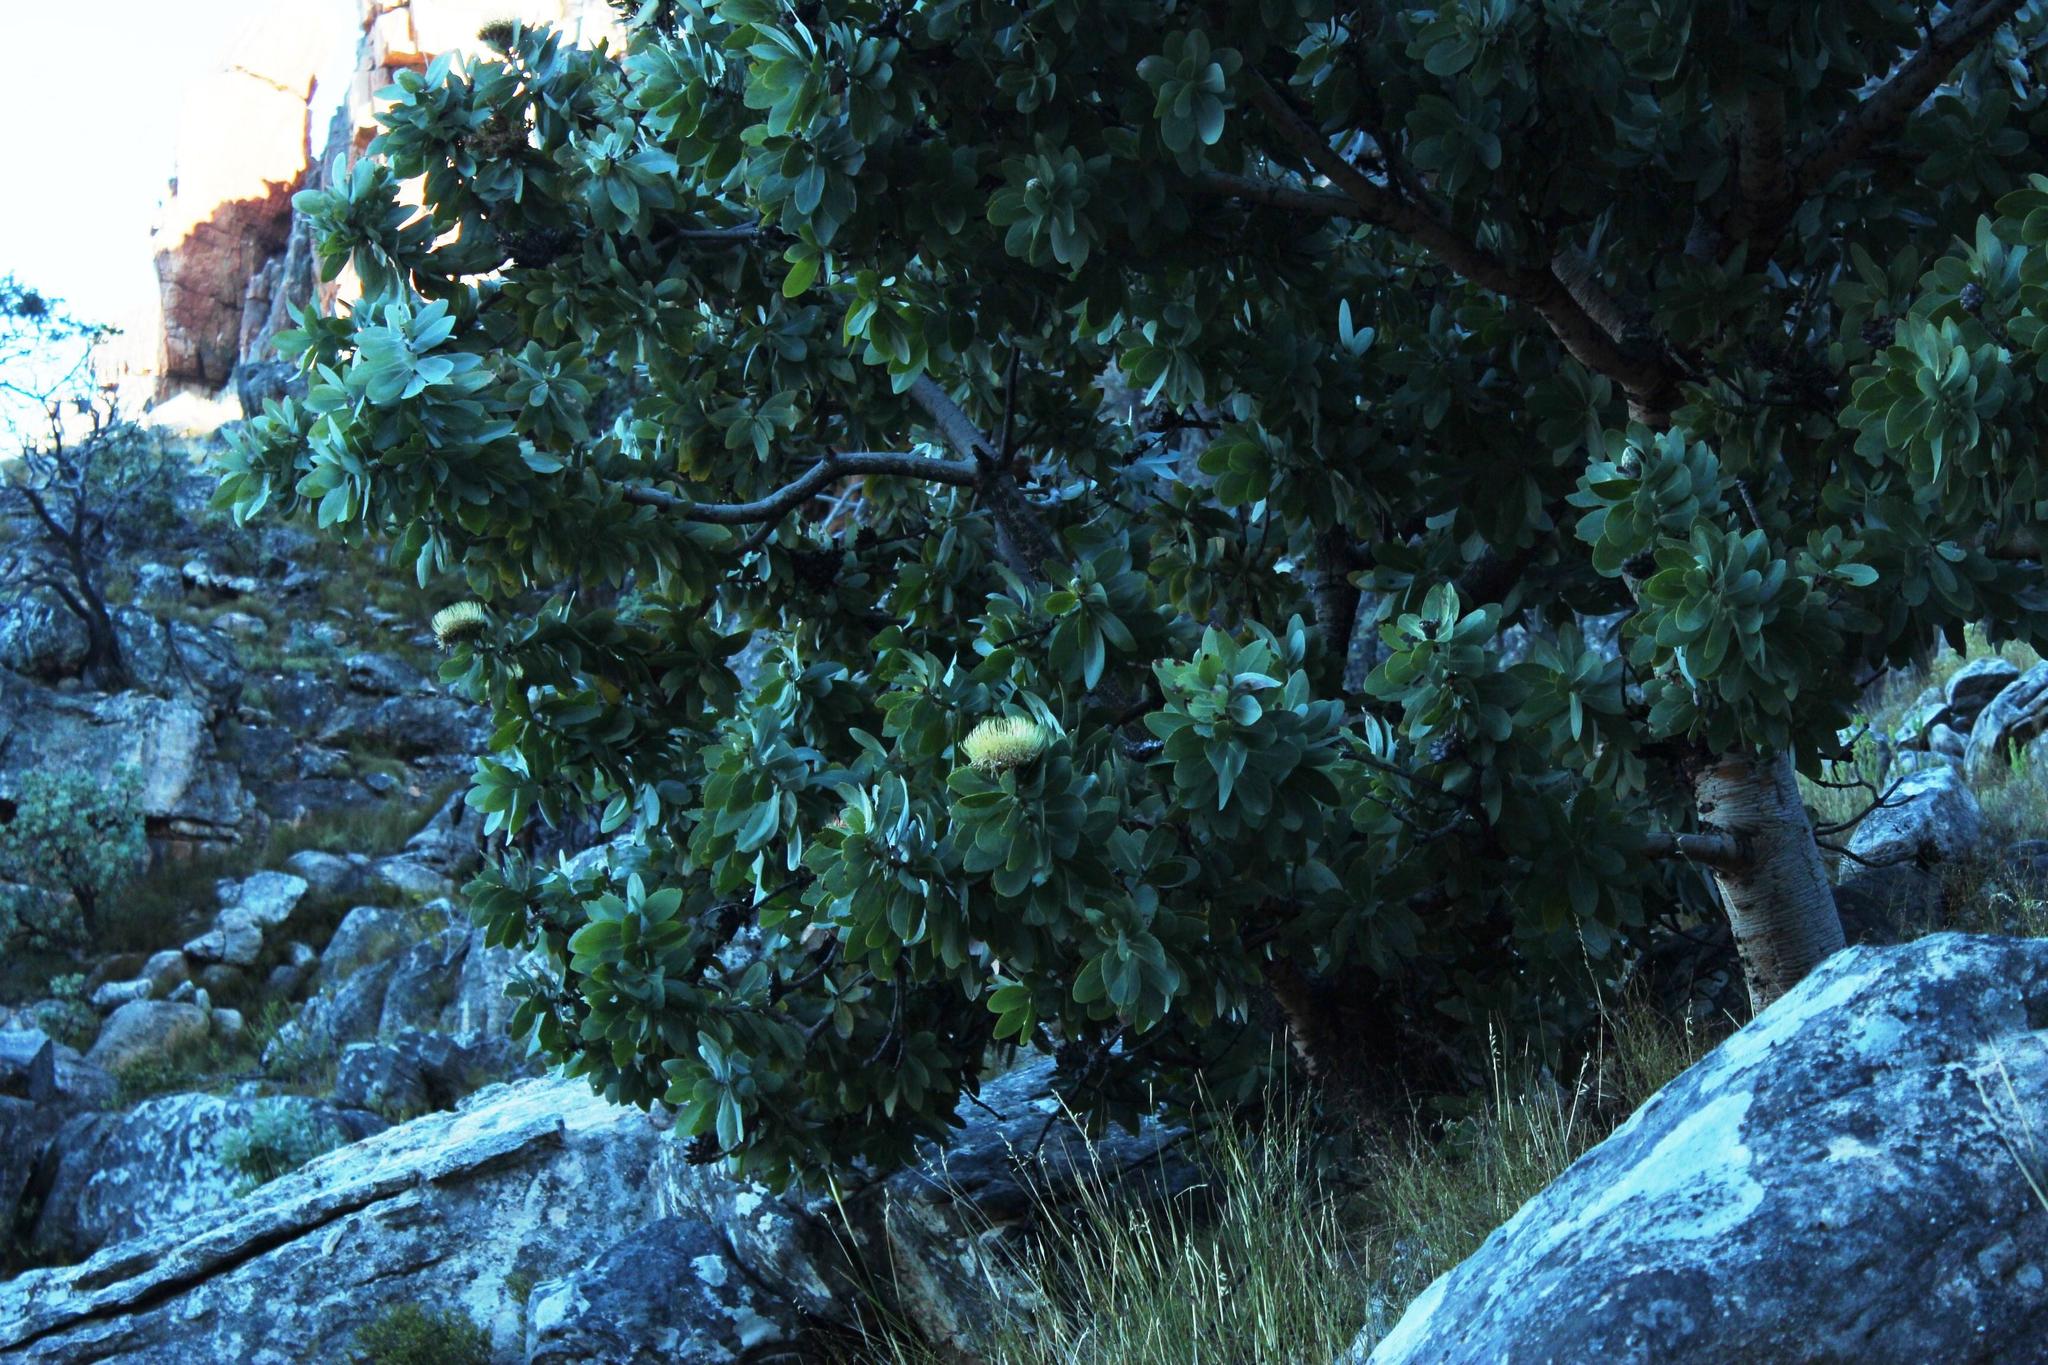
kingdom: Plantae
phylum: Tracheophyta
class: Magnoliopsida
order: Proteales
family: Proteaceae
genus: Protea
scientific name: Protea nitida
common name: Tree protea
